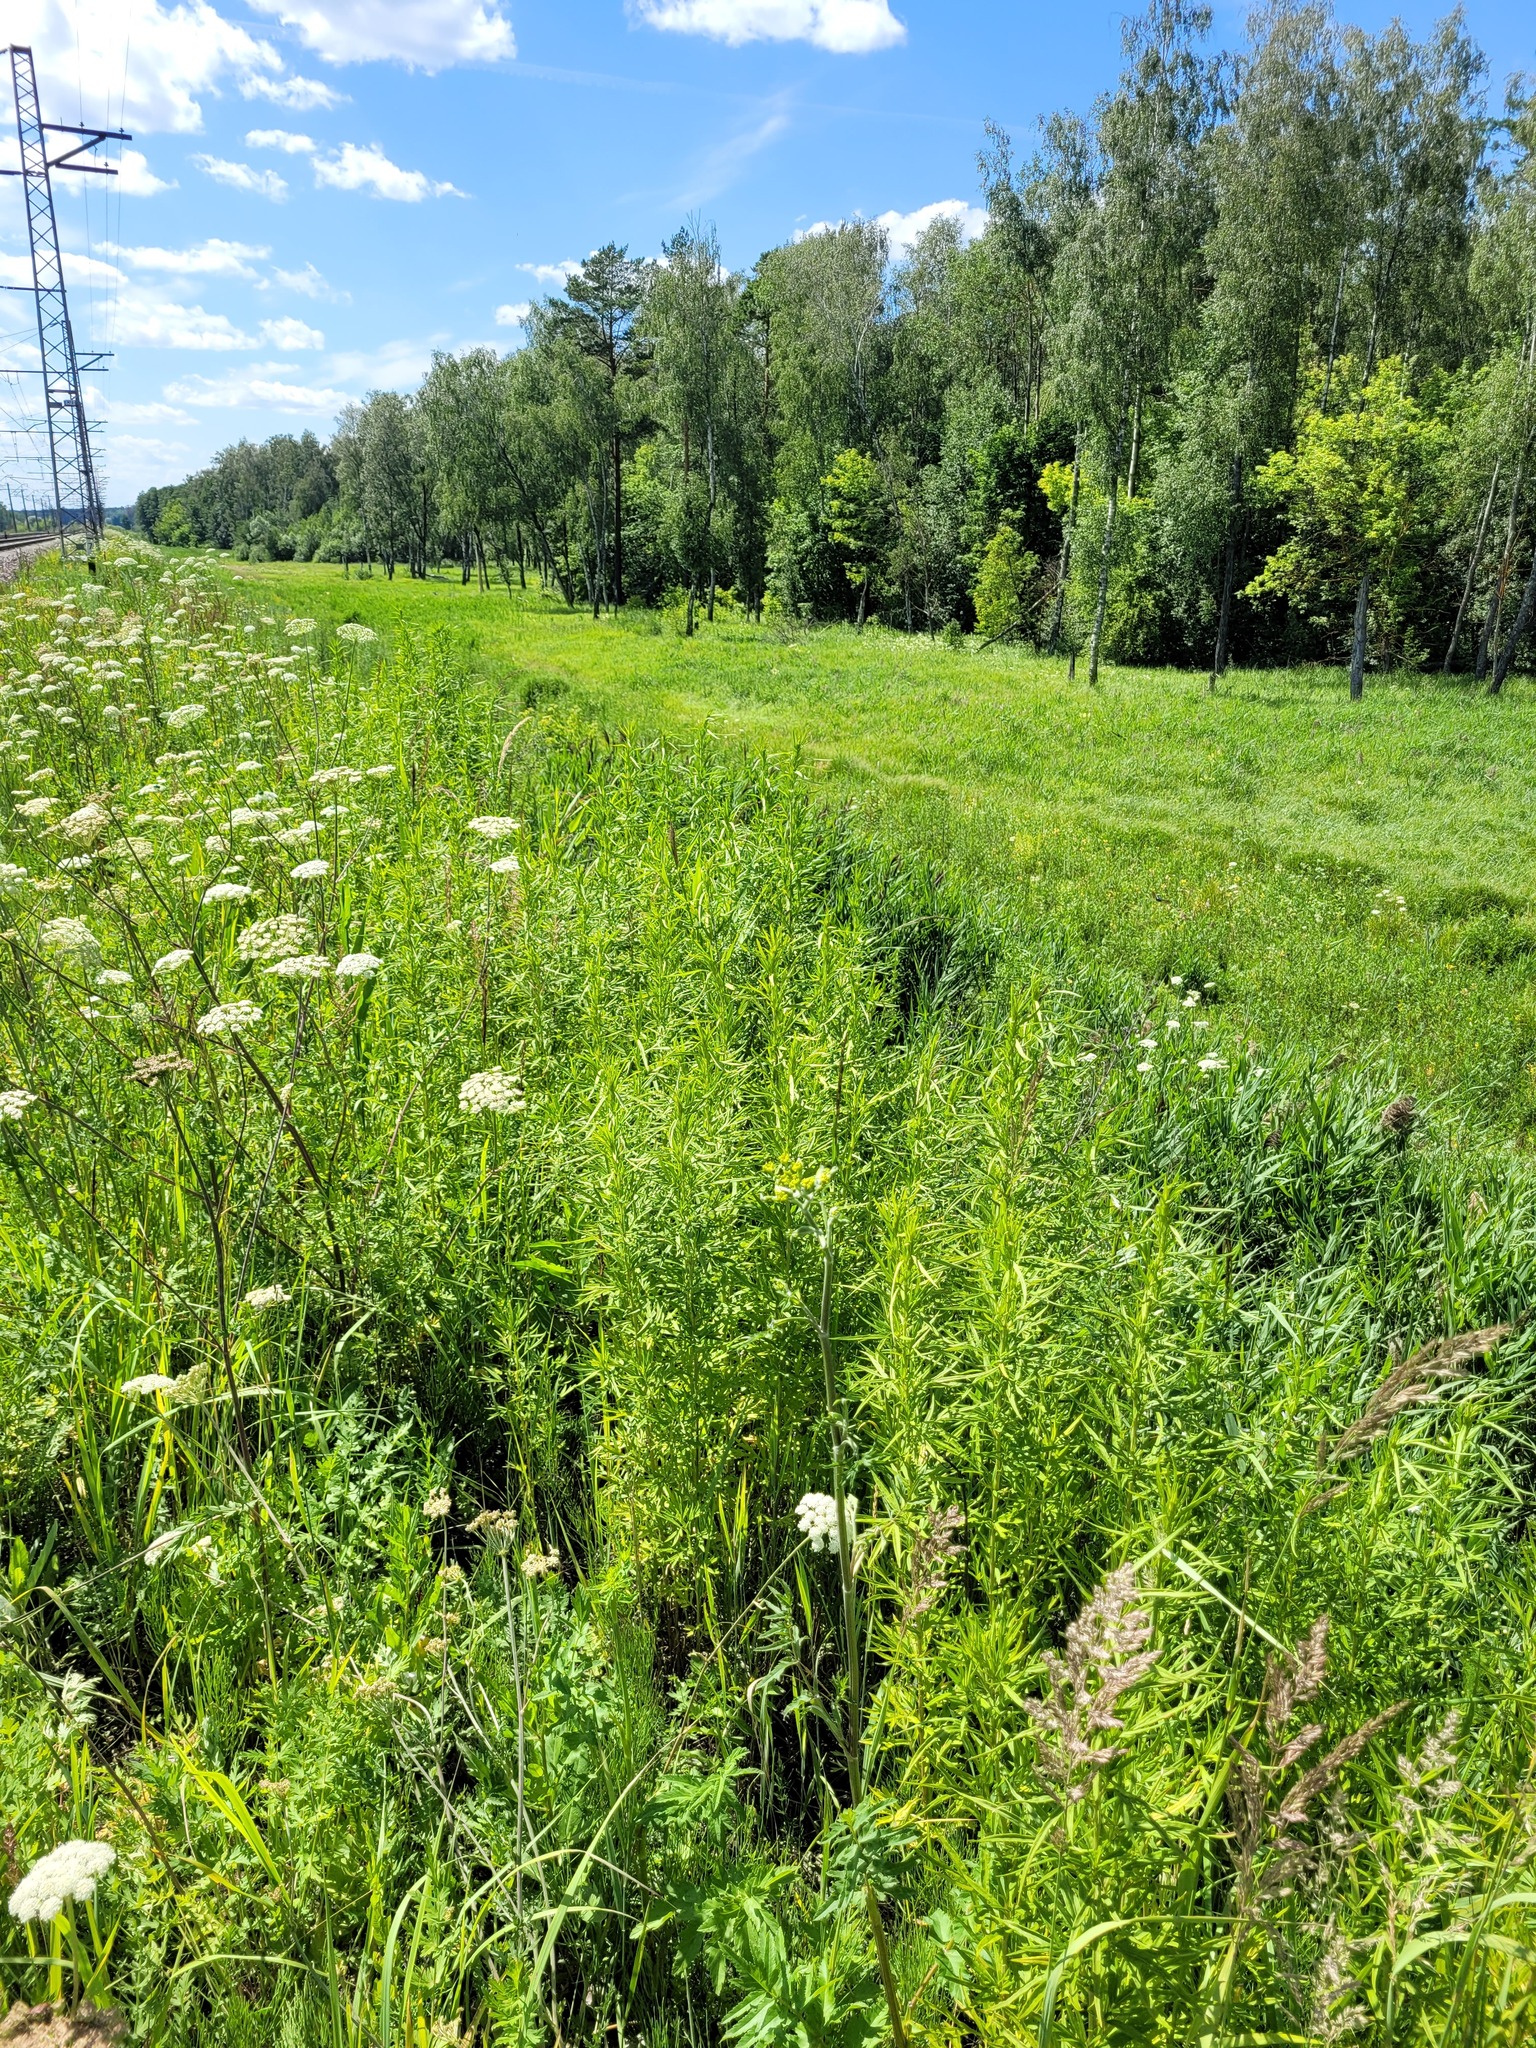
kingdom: Plantae
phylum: Tracheophyta
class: Magnoliopsida
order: Asterales
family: Asteraceae
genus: Artemisia
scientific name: Artemisia umbrosa
